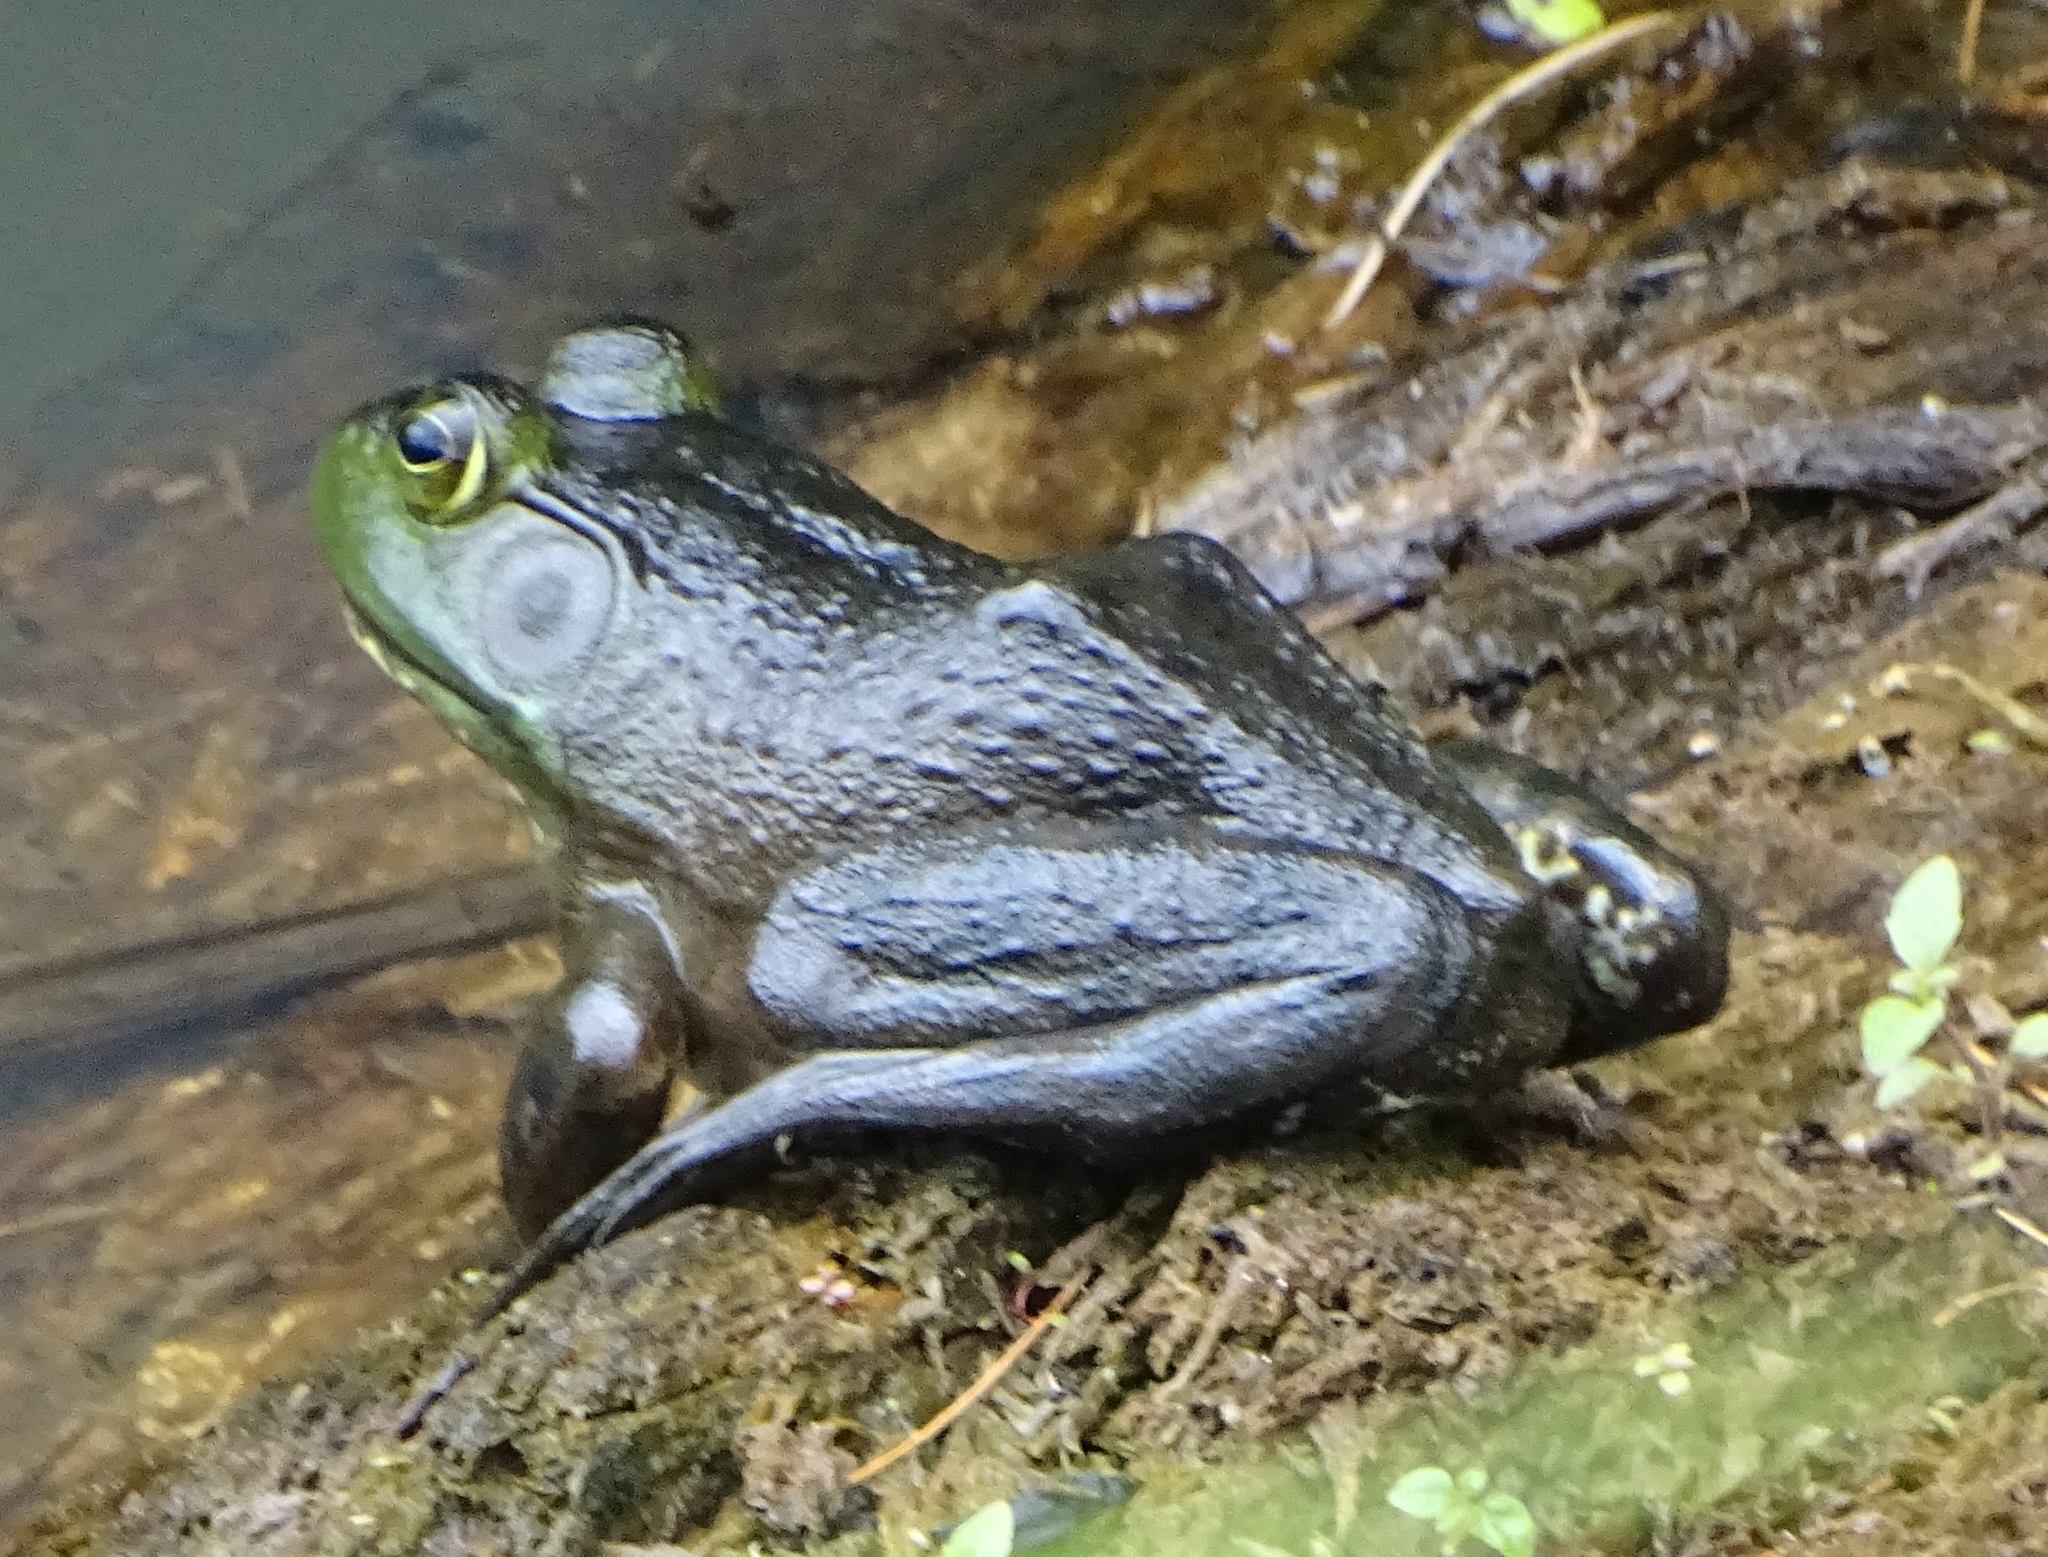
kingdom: Animalia
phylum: Chordata
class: Amphibia
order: Anura
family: Ranidae
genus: Lithobates
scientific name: Lithobates catesbeianus
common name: American bullfrog
